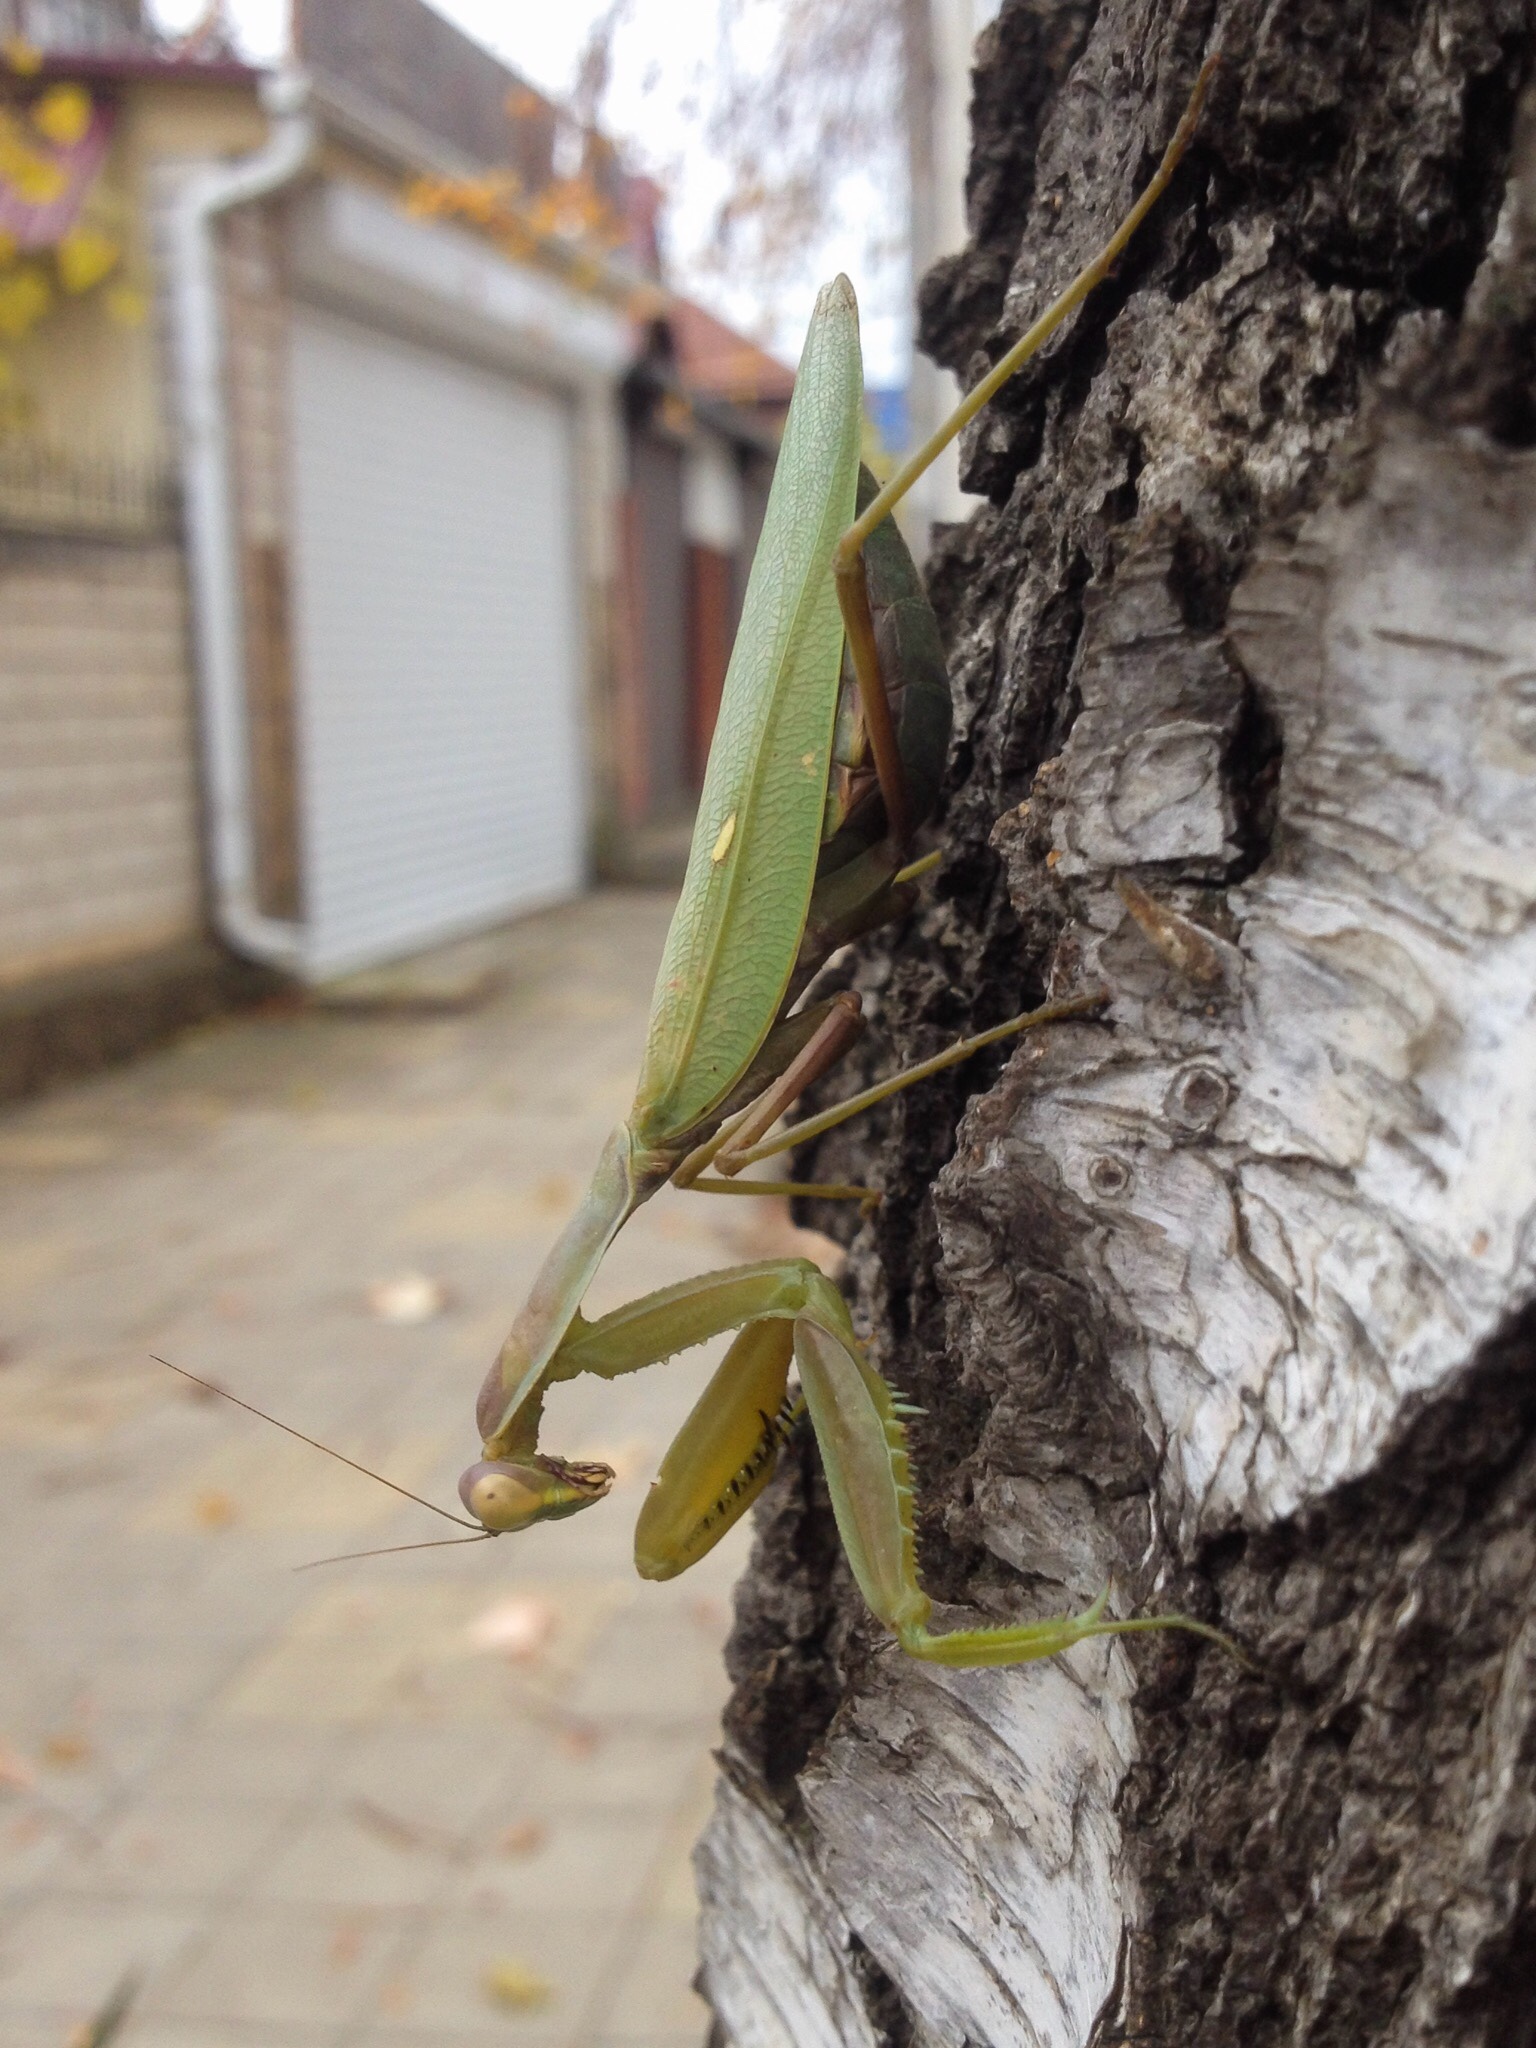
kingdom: Animalia
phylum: Arthropoda
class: Insecta
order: Mantodea
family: Mantidae
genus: Hierodula
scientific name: Hierodula transcaucasica
